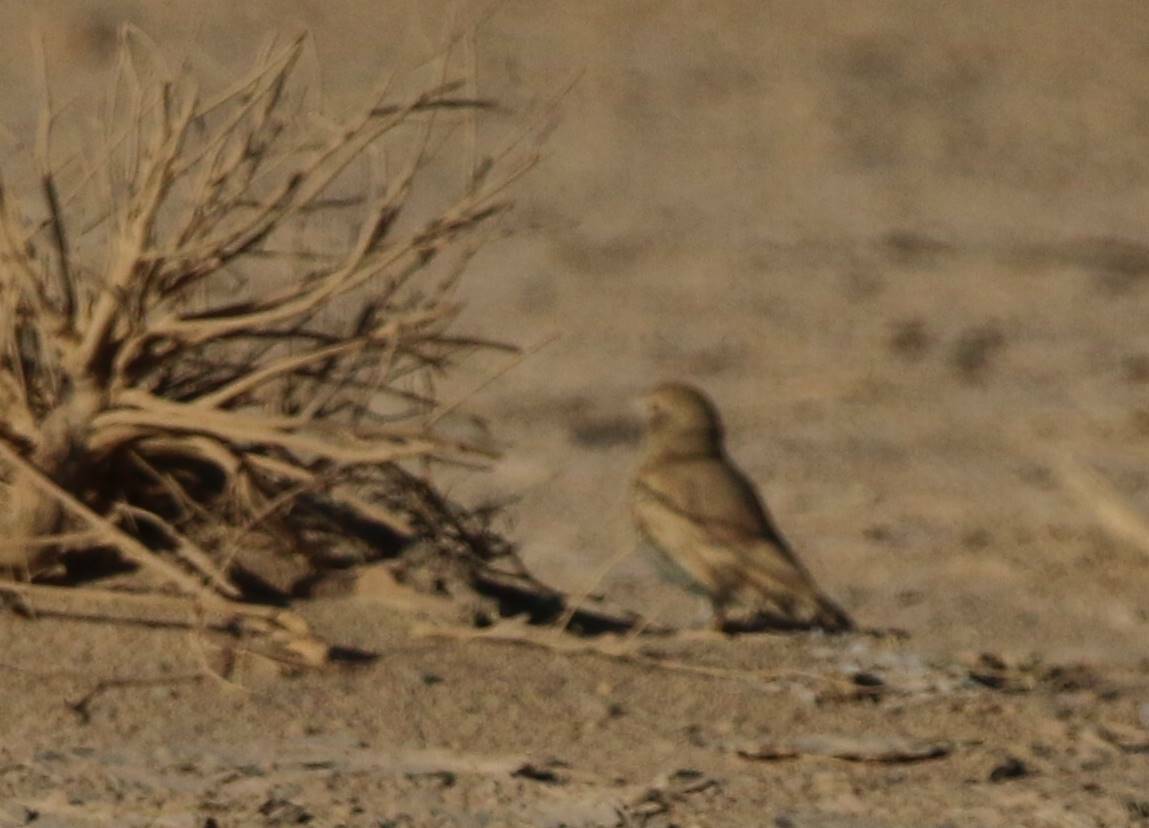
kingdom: Animalia
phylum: Chordata
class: Aves
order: Passeriformes
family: Alaudidae
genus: Ammomanes
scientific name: Ammomanes cinctura
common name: Bar-tailed lark
